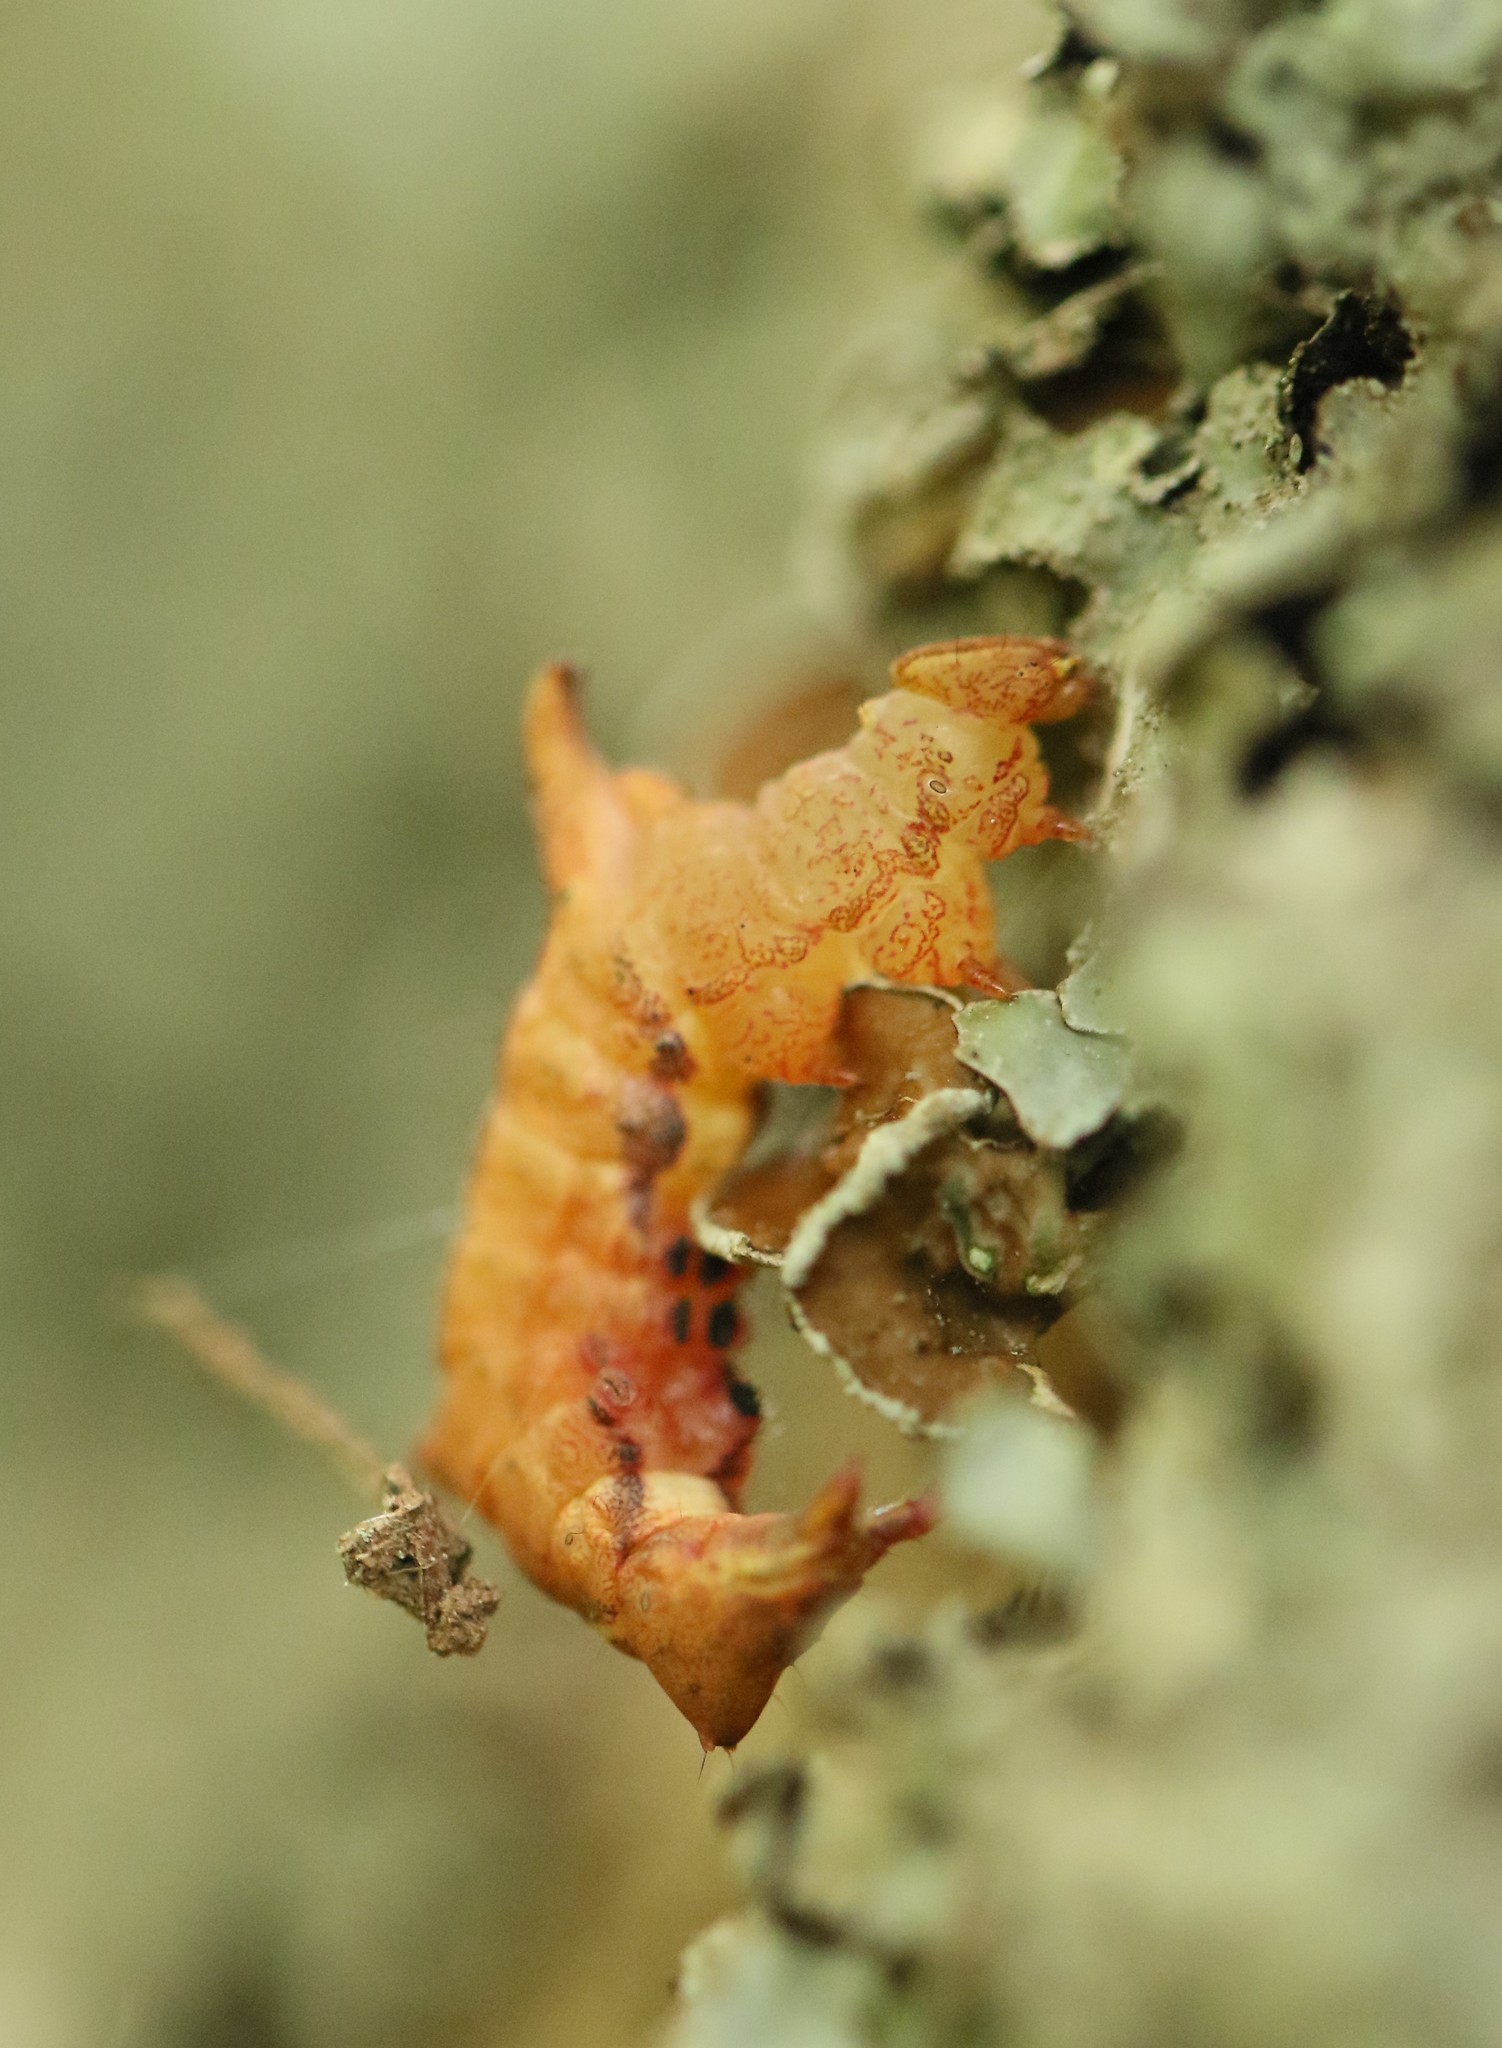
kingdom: Animalia
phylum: Arthropoda
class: Insecta
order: Lepidoptera
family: Notodontidae
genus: Schizura
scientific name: Schizura
